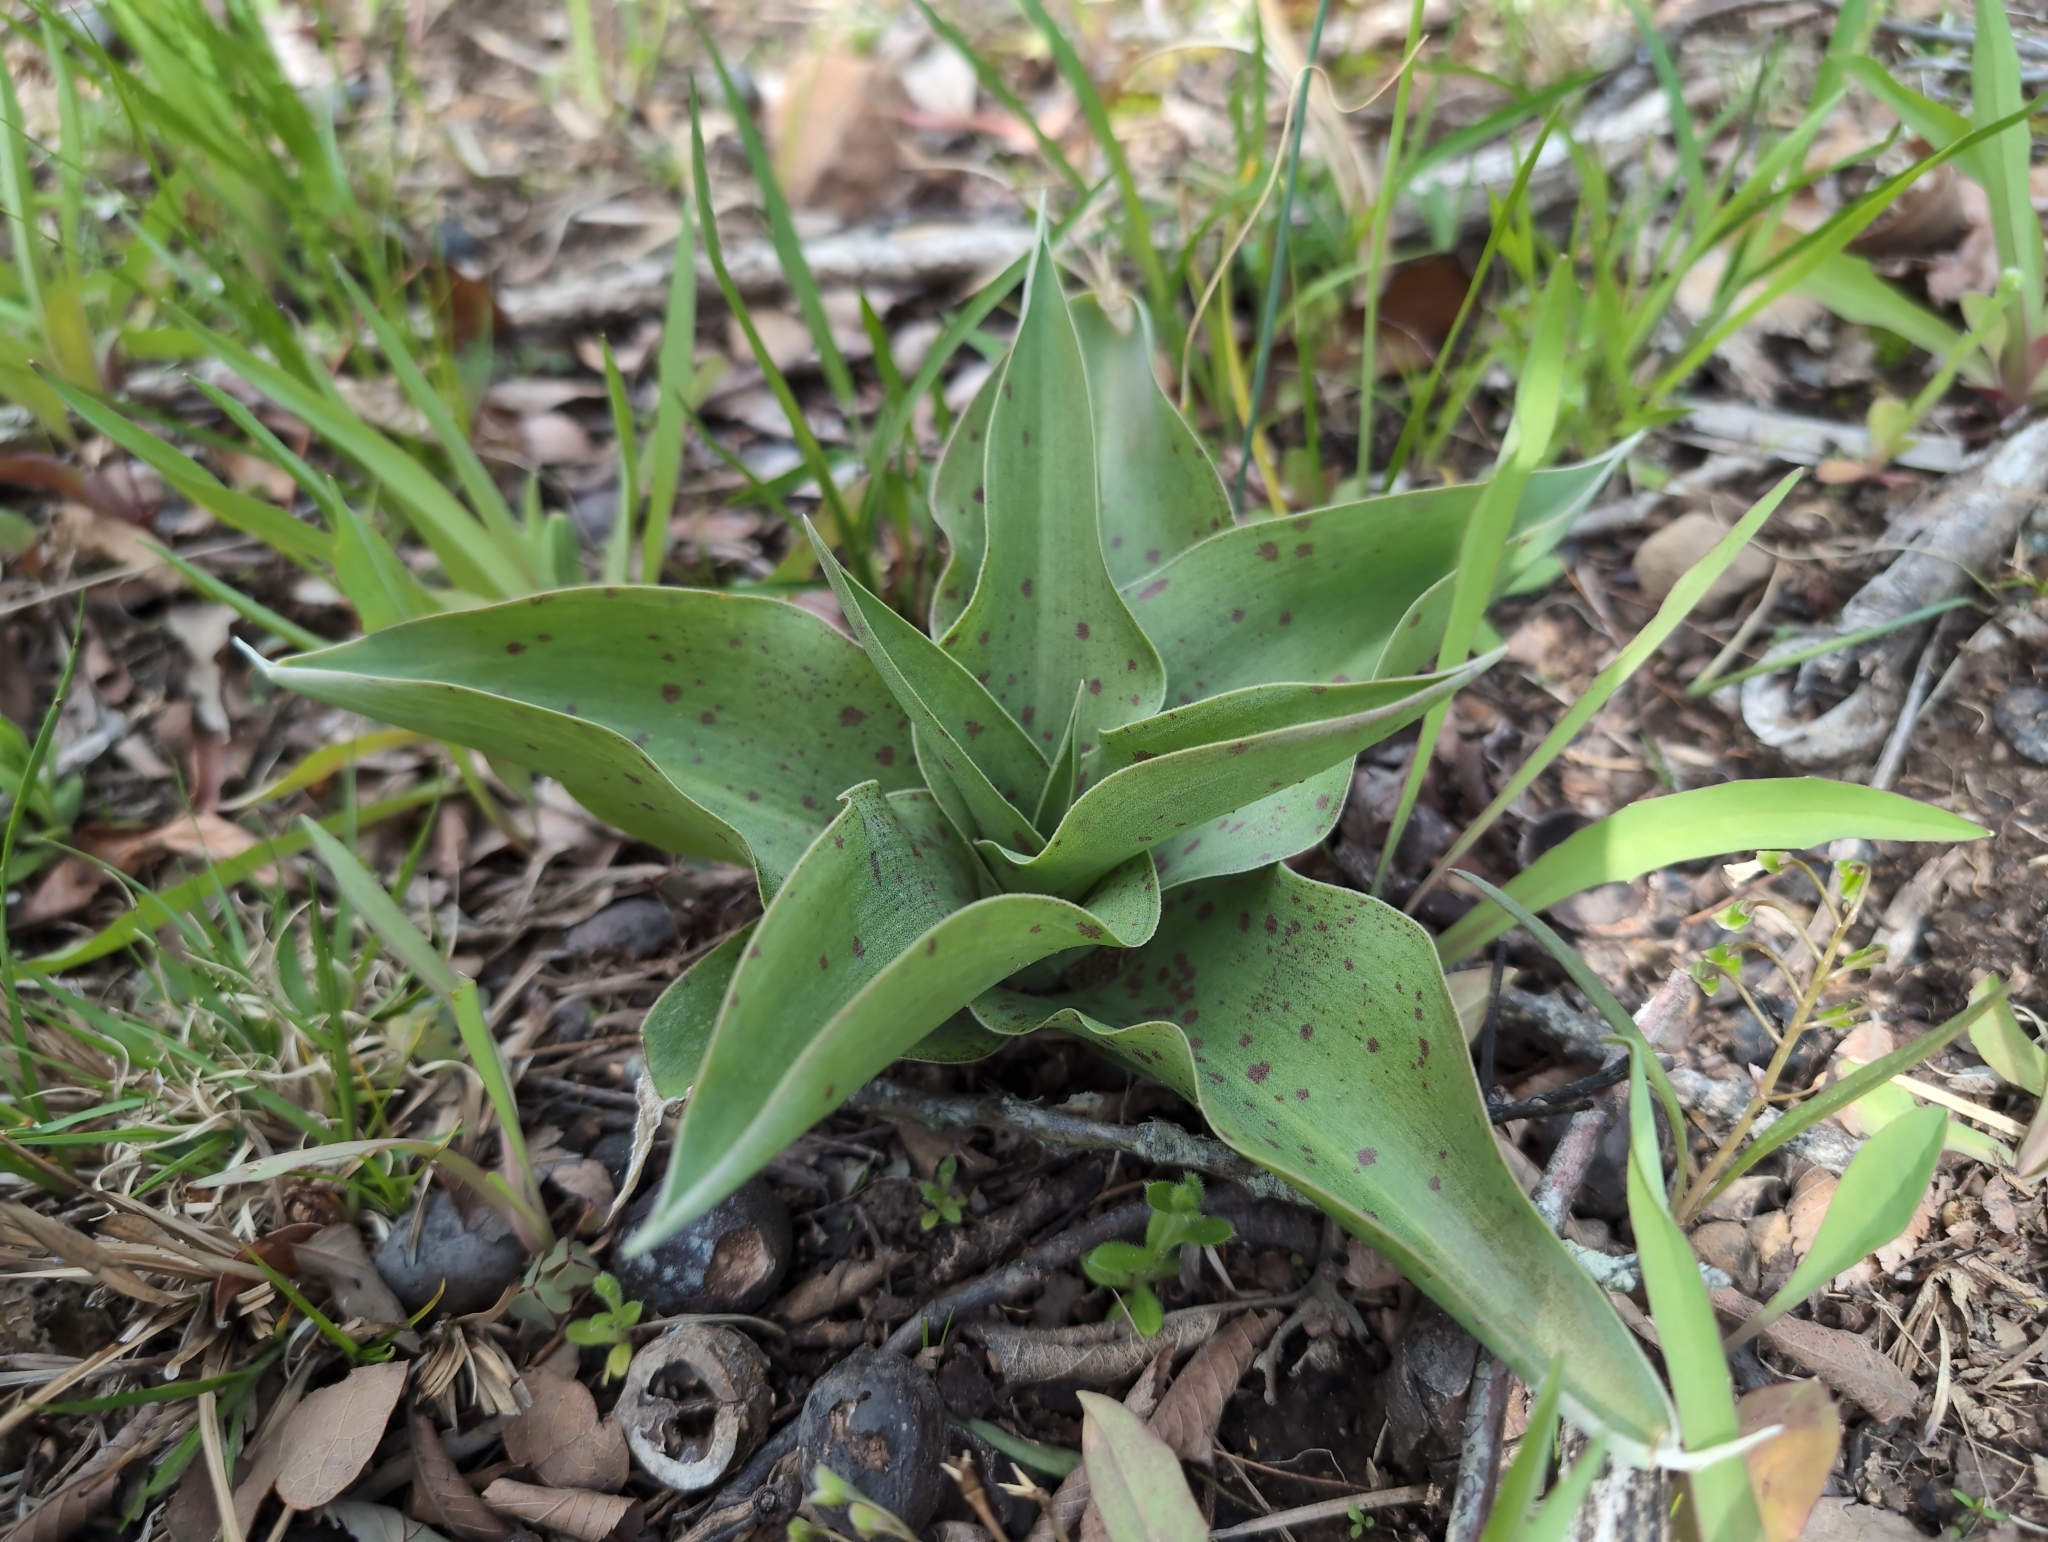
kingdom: Plantae
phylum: Tracheophyta
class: Liliopsida
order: Asparagales
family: Asparagaceae
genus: Agave
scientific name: Agave virginica
